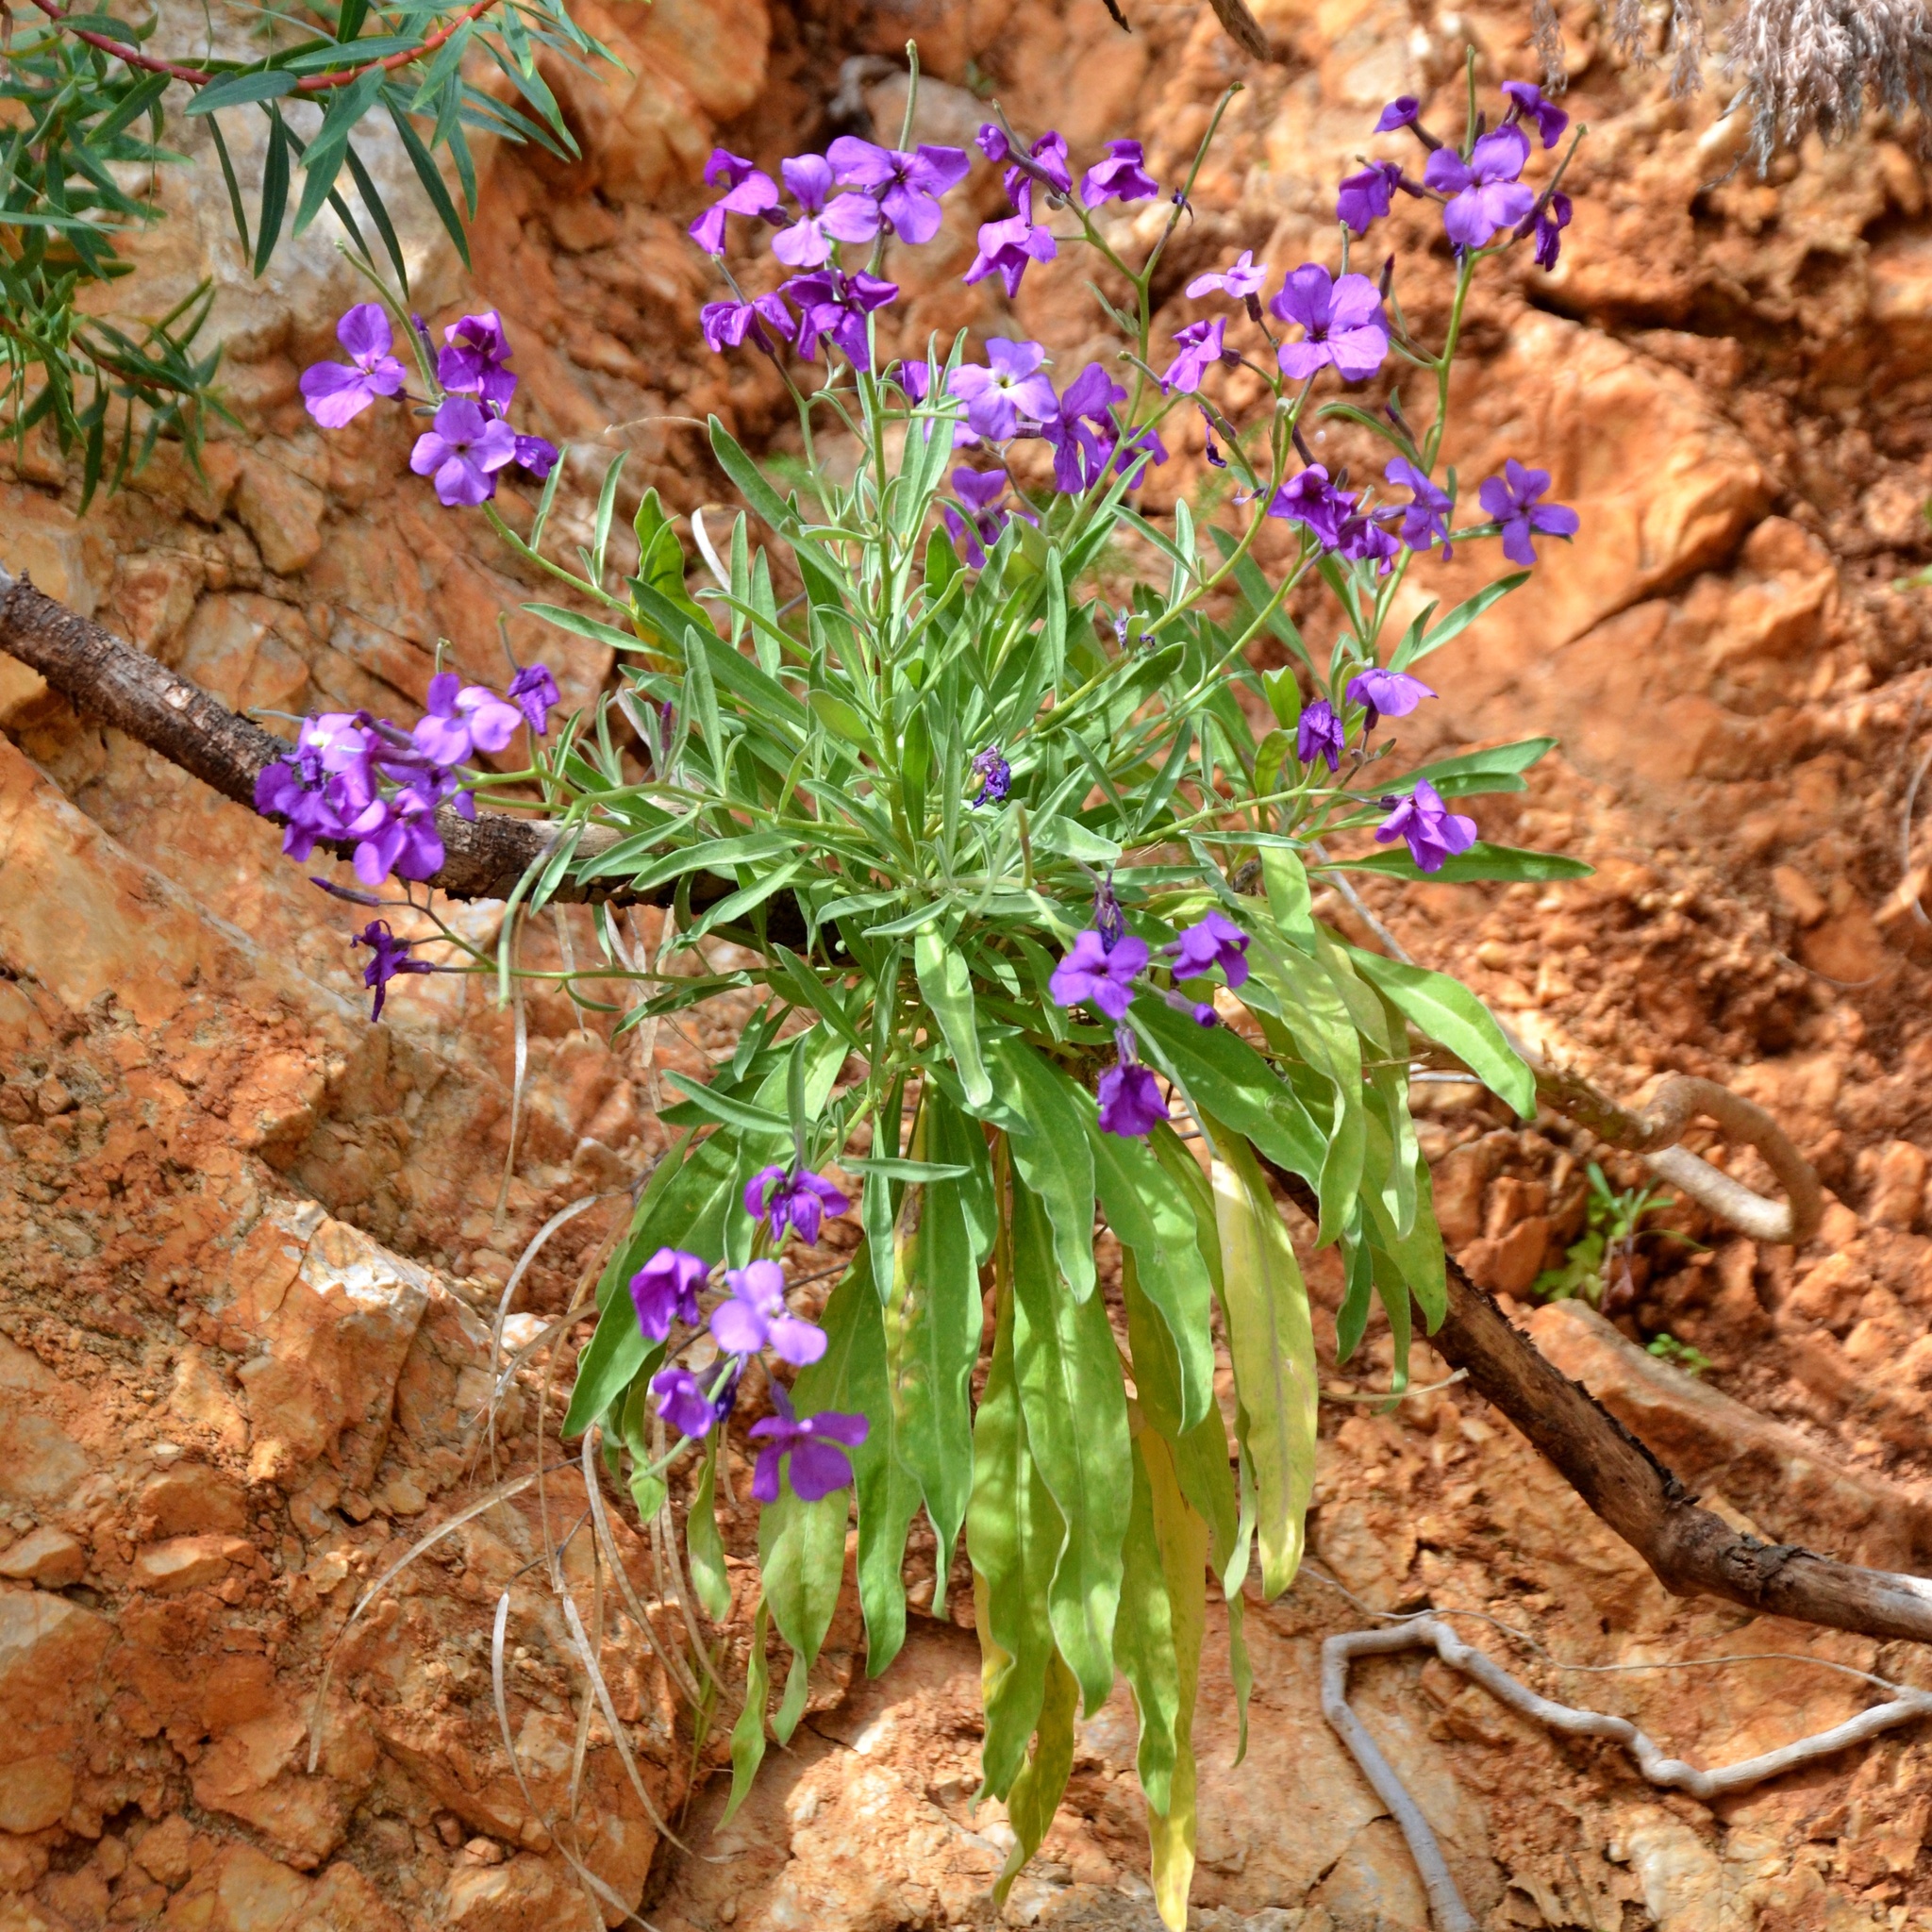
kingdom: Plantae
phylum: Tracheophyta
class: Magnoliopsida
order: Brassicales
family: Brassicaceae
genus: Matthiola
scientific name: Matthiola incana
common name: Hoary stock
